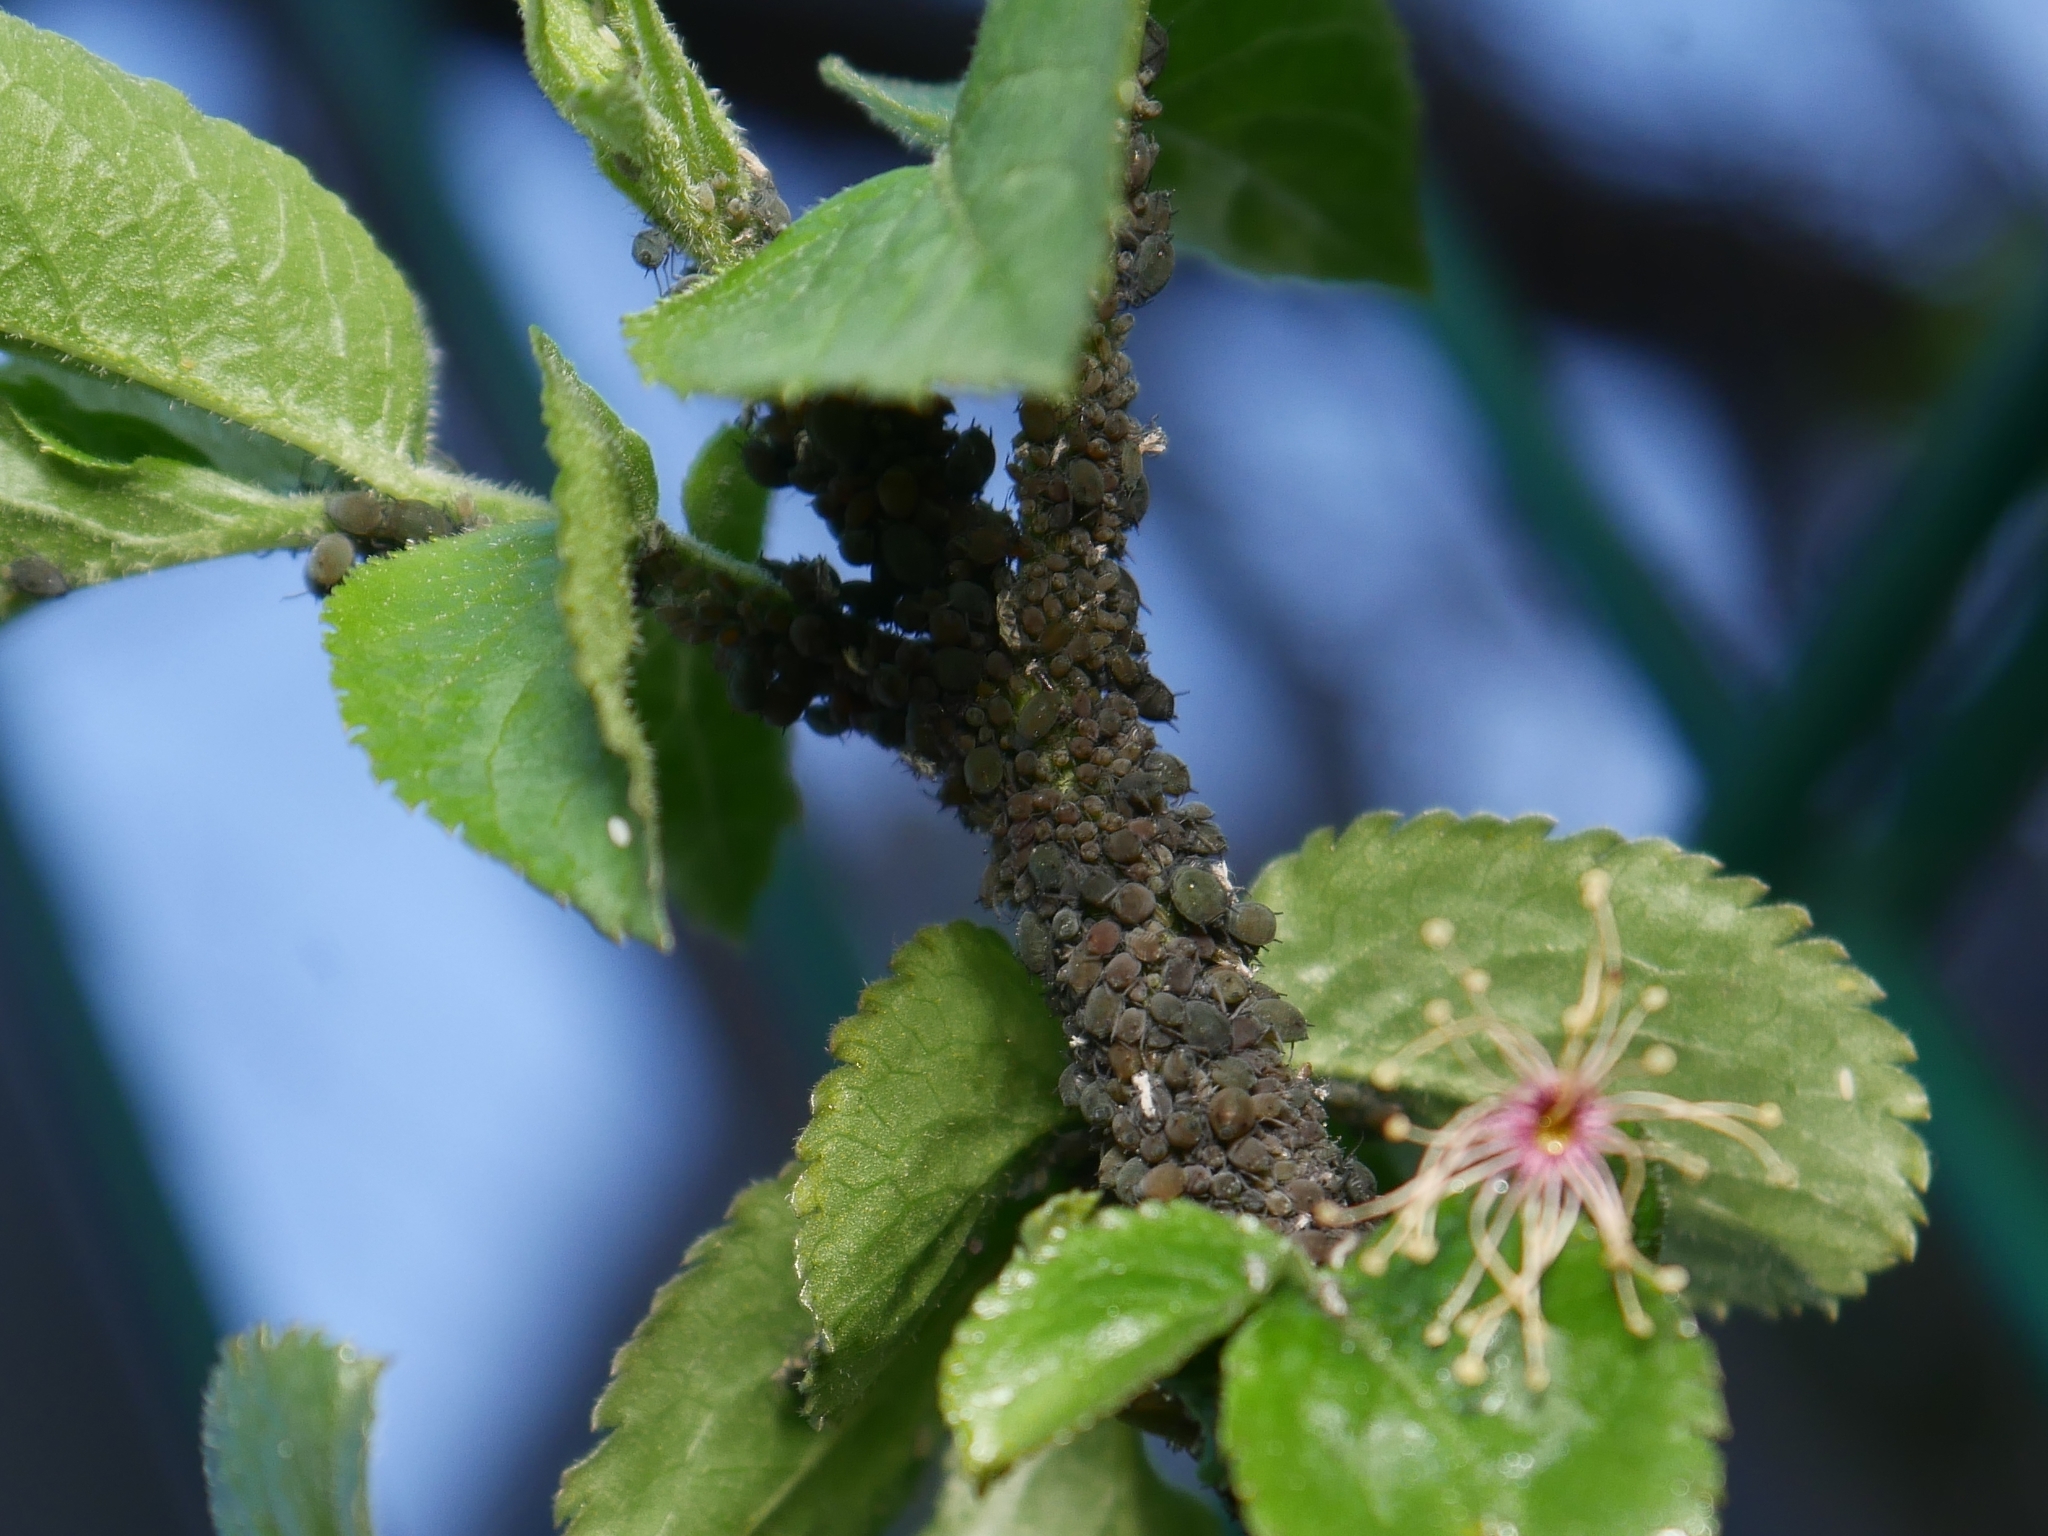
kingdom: Animalia
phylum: Arthropoda
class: Insecta
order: Hemiptera
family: Aphididae
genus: Aphis
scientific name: Aphis sambuci
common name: Elder aphid
